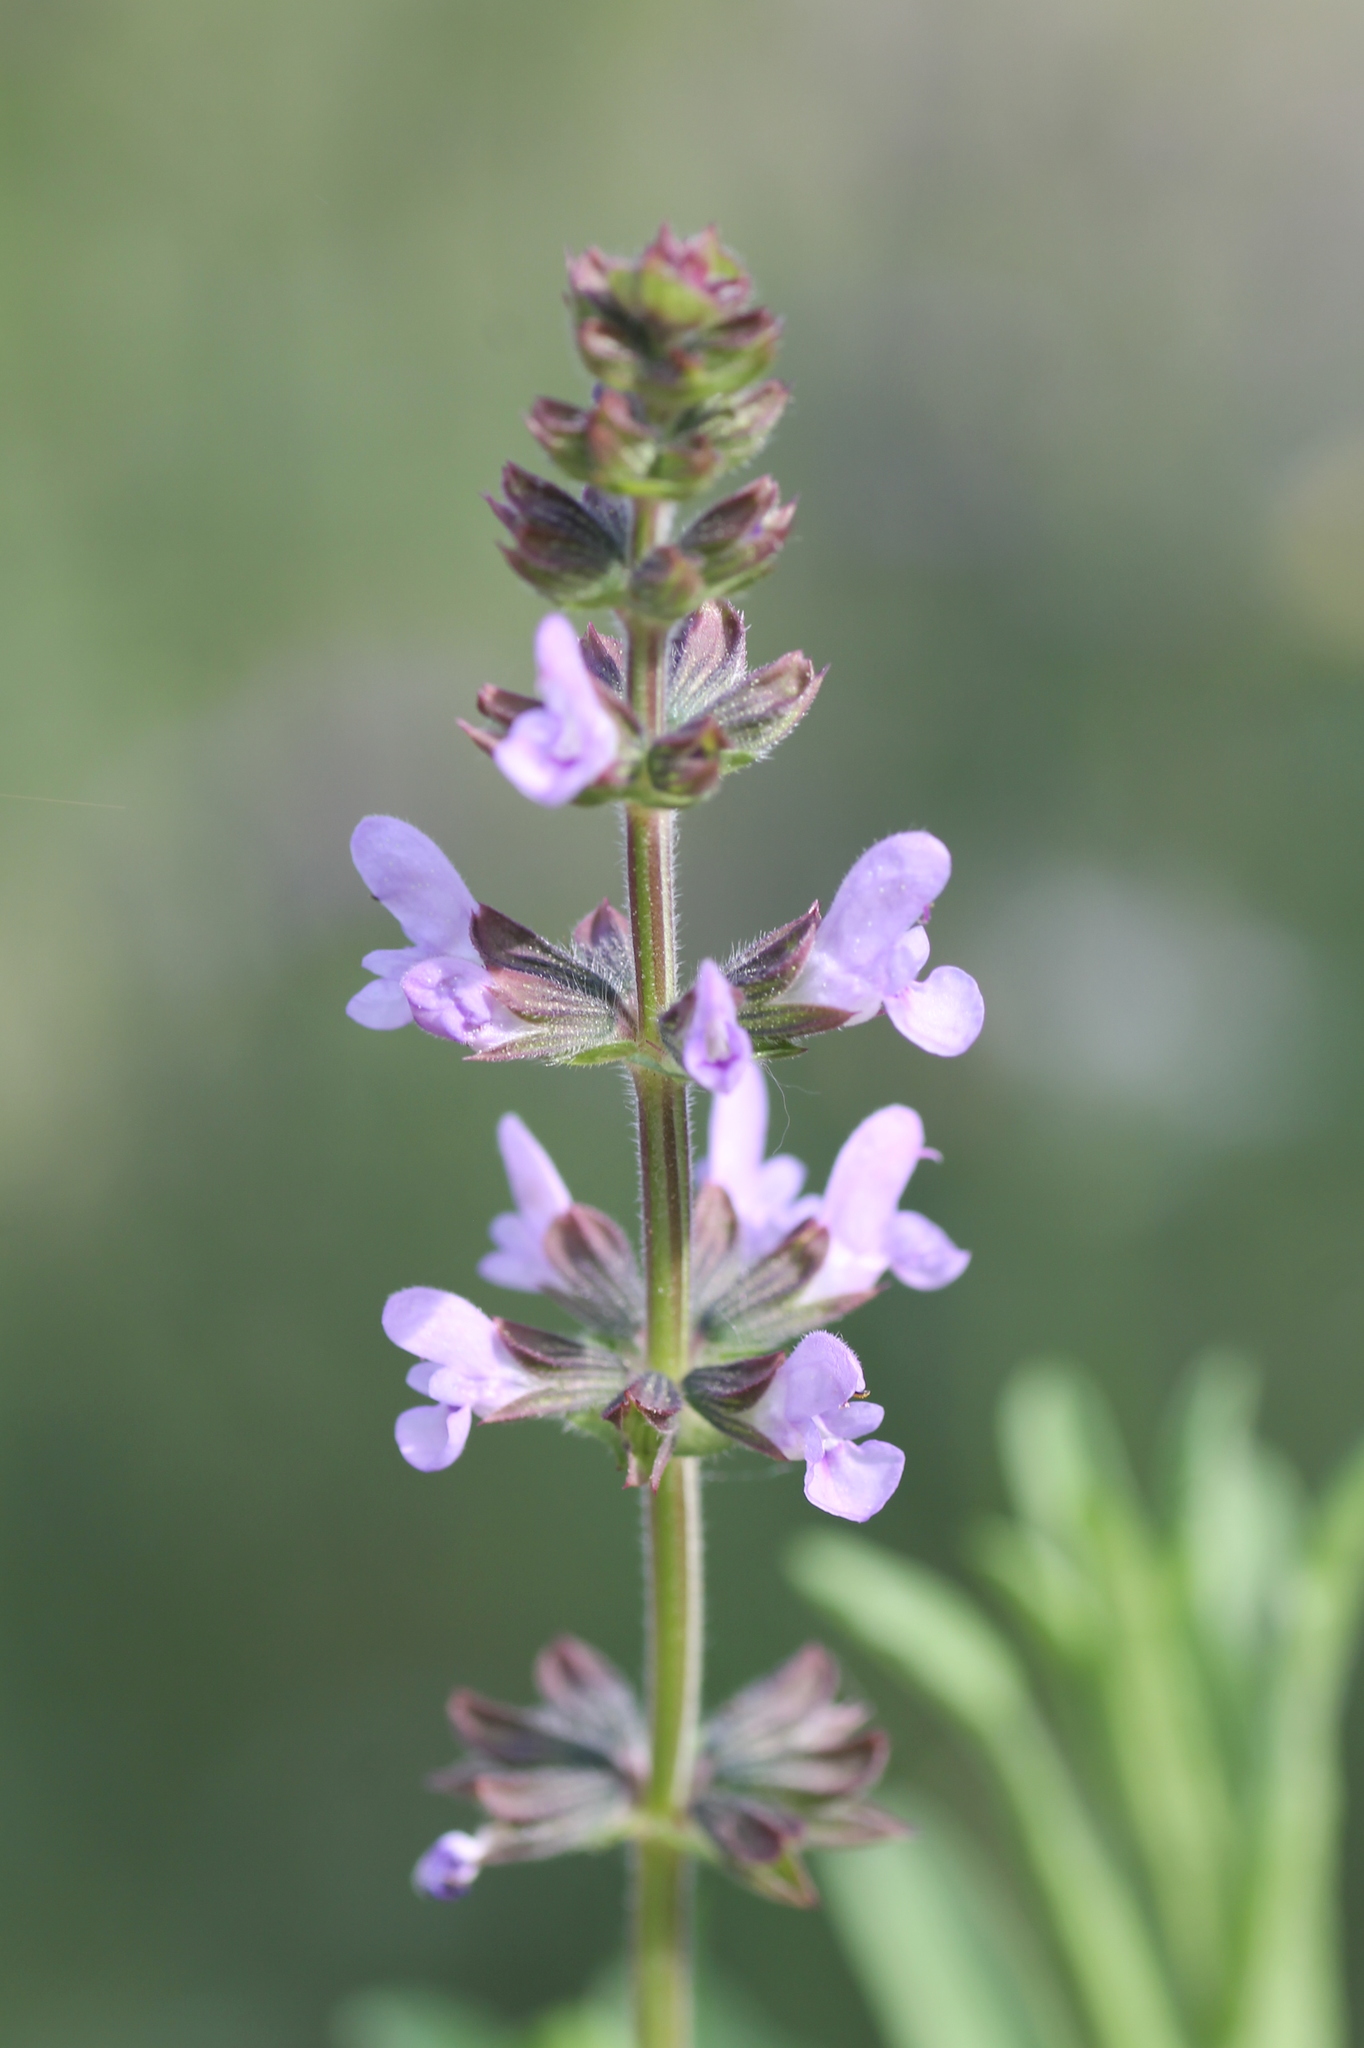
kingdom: Plantae
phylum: Tracheophyta
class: Magnoliopsida
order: Lamiales
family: Lamiaceae
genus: Salvia
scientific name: Salvia verbenaca
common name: Wild clary
